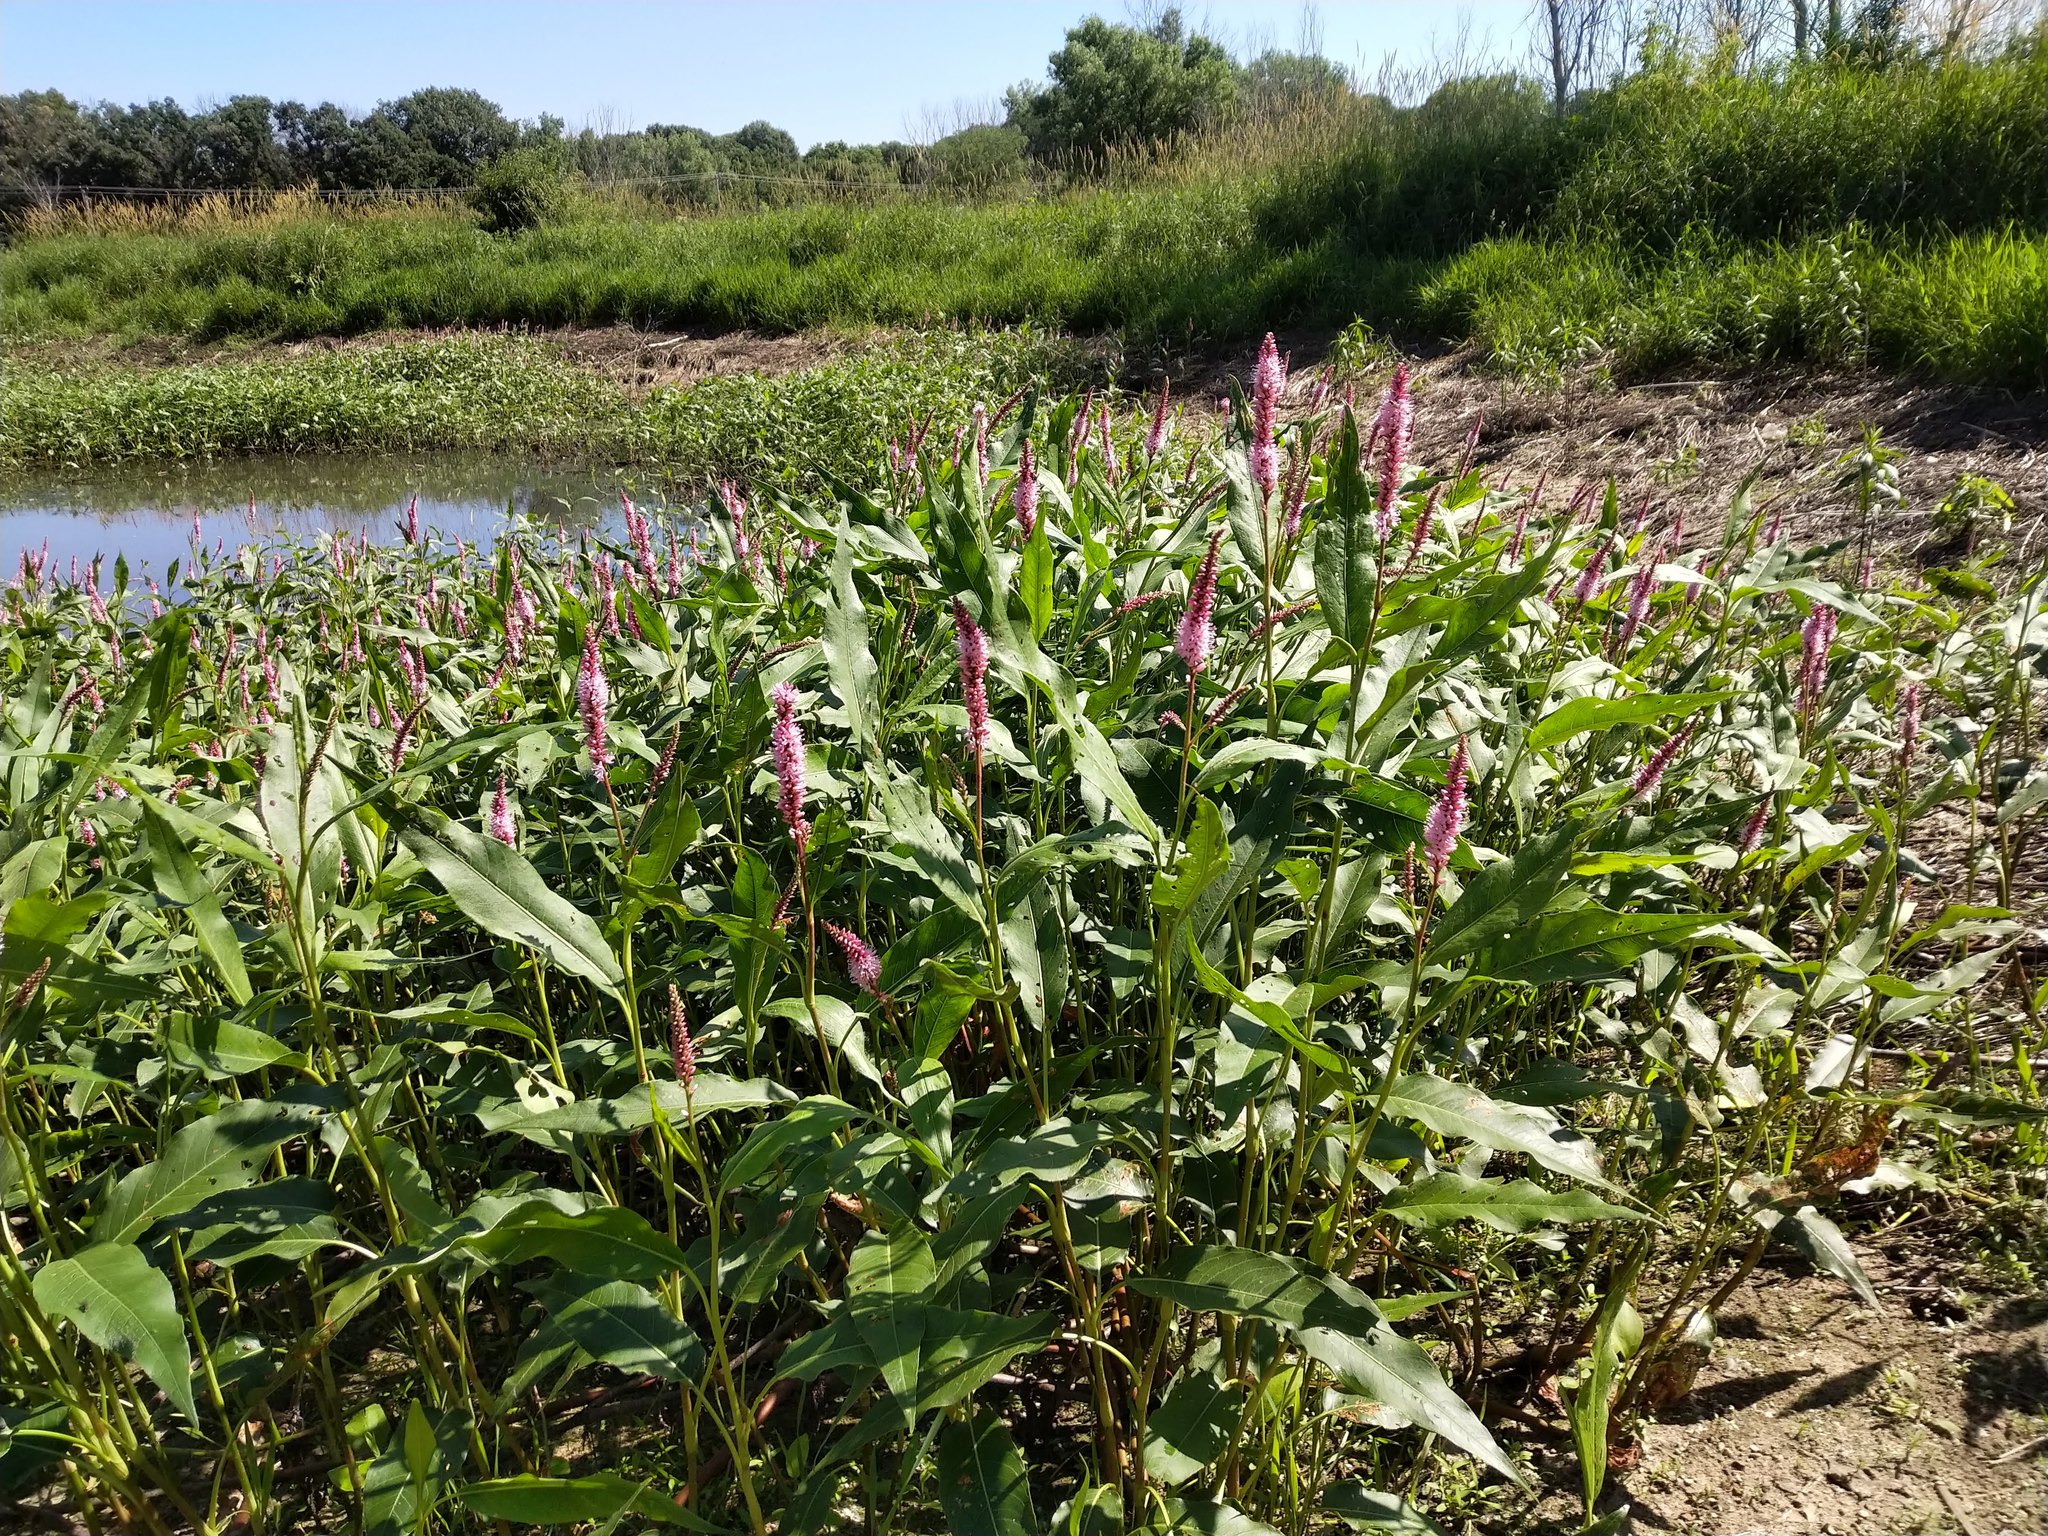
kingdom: Plantae
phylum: Tracheophyta
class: Magnoliopsida
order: Caryophyllales
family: Polygonaceae
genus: Persicaria
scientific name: Persicaria amphibia
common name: Amphibious bistort
